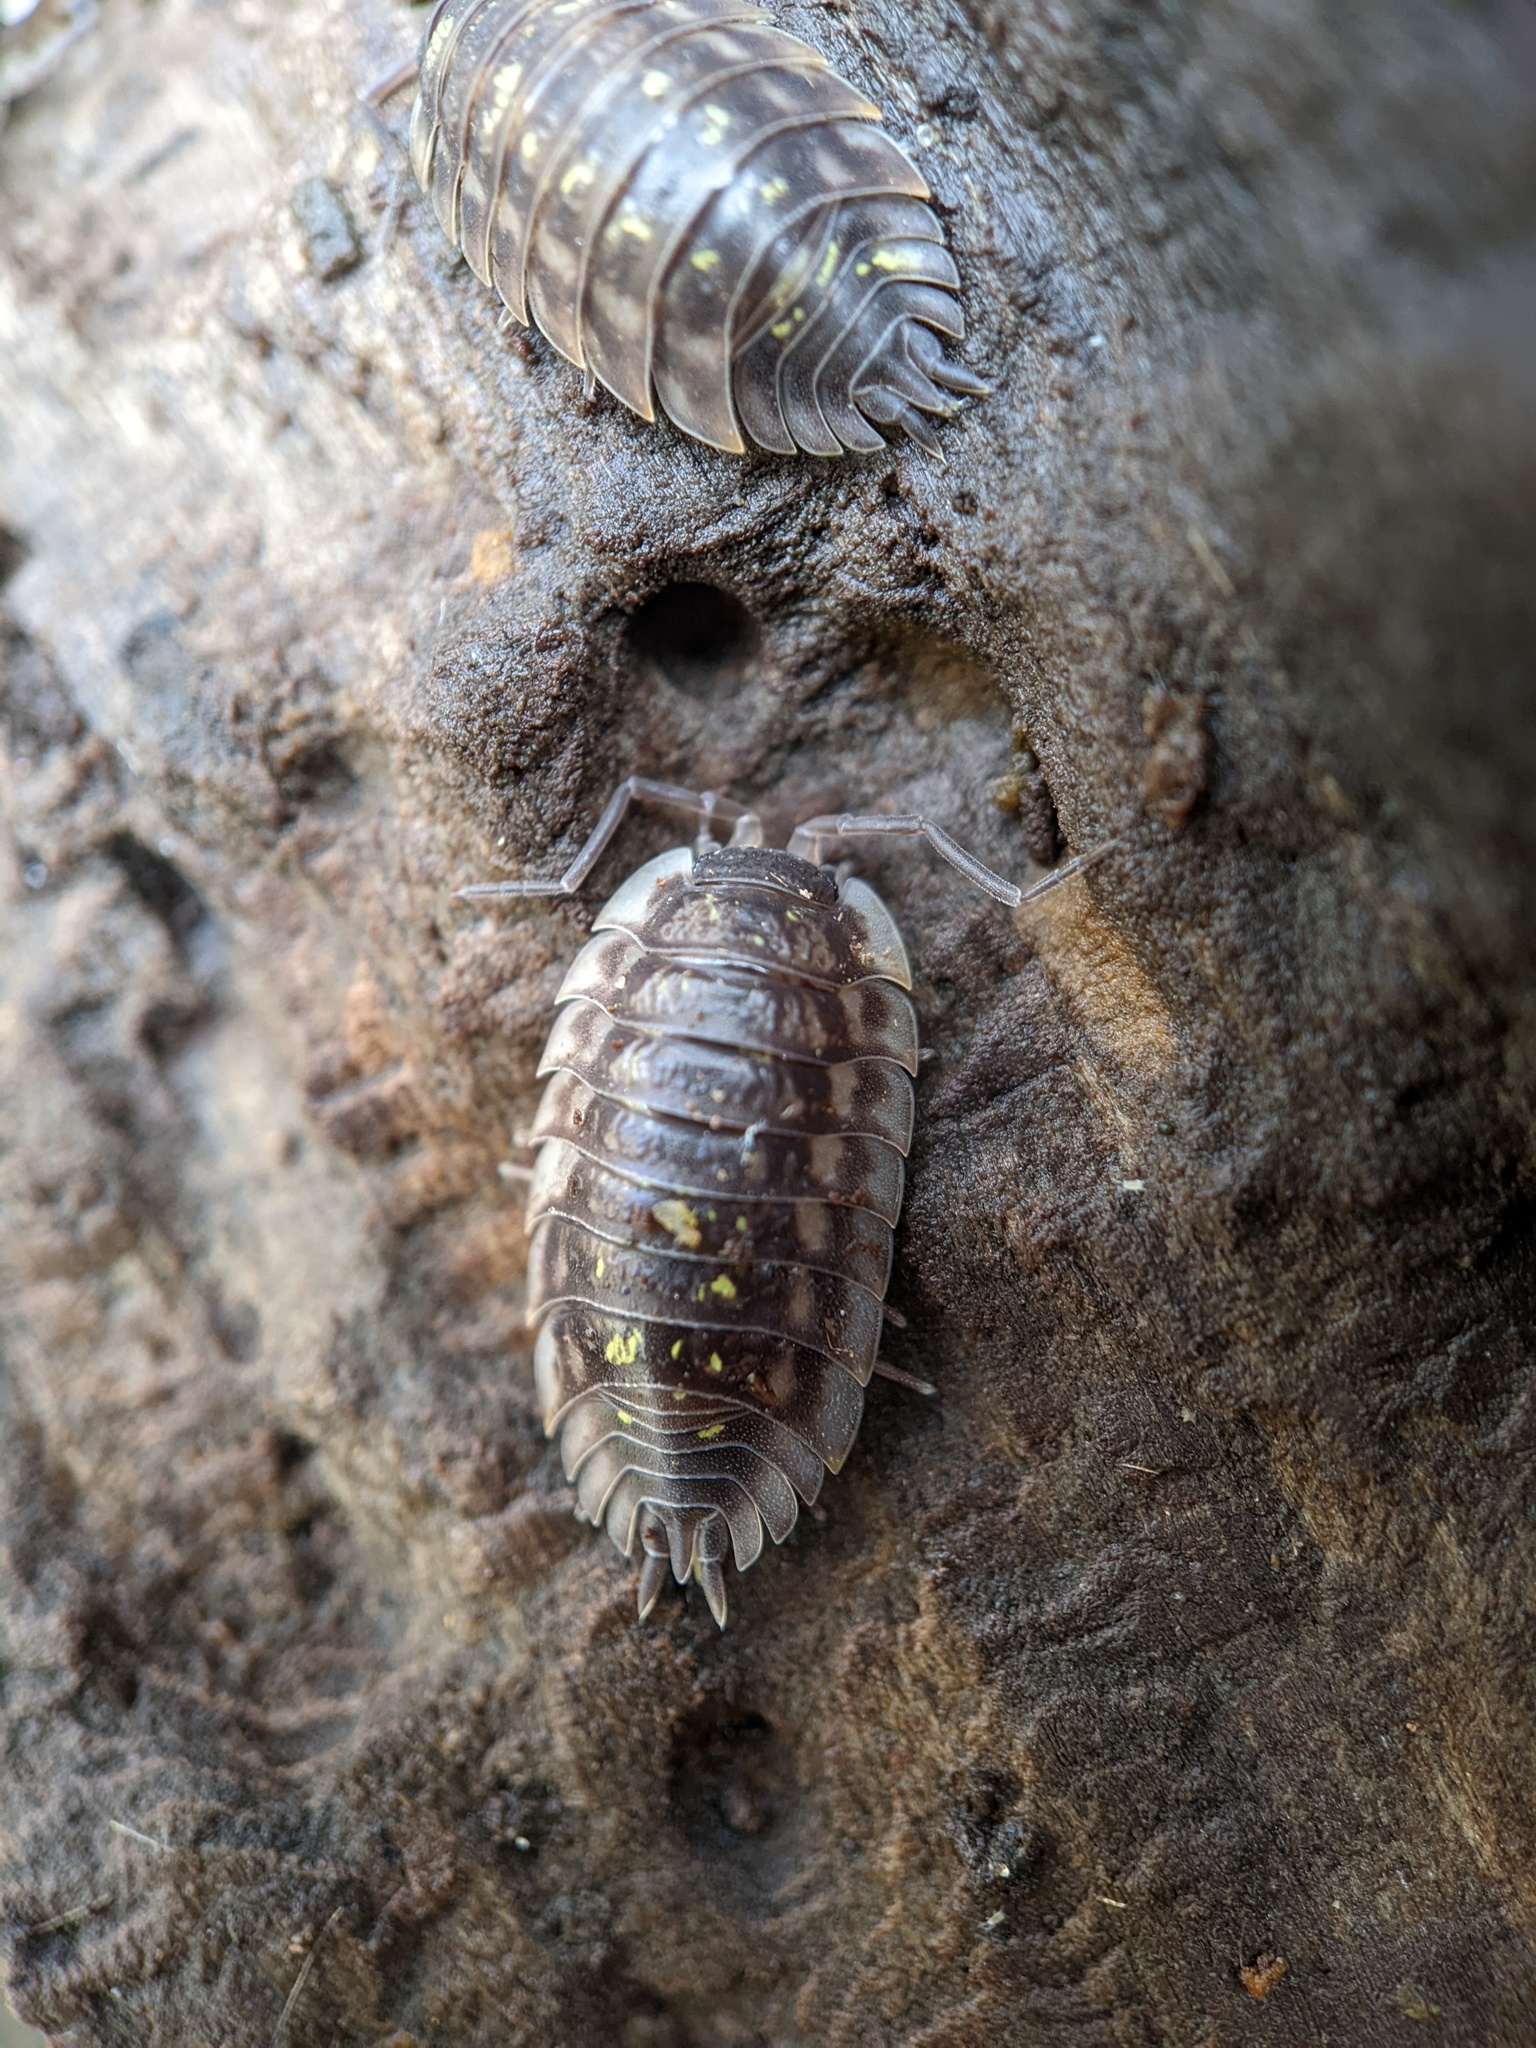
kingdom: Animalia
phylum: Arthropoda
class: Malacostraca
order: Isopoda
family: Oniscidae
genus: Oniscus
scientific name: Oniscus asellus
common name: Common shiny woodlouse
